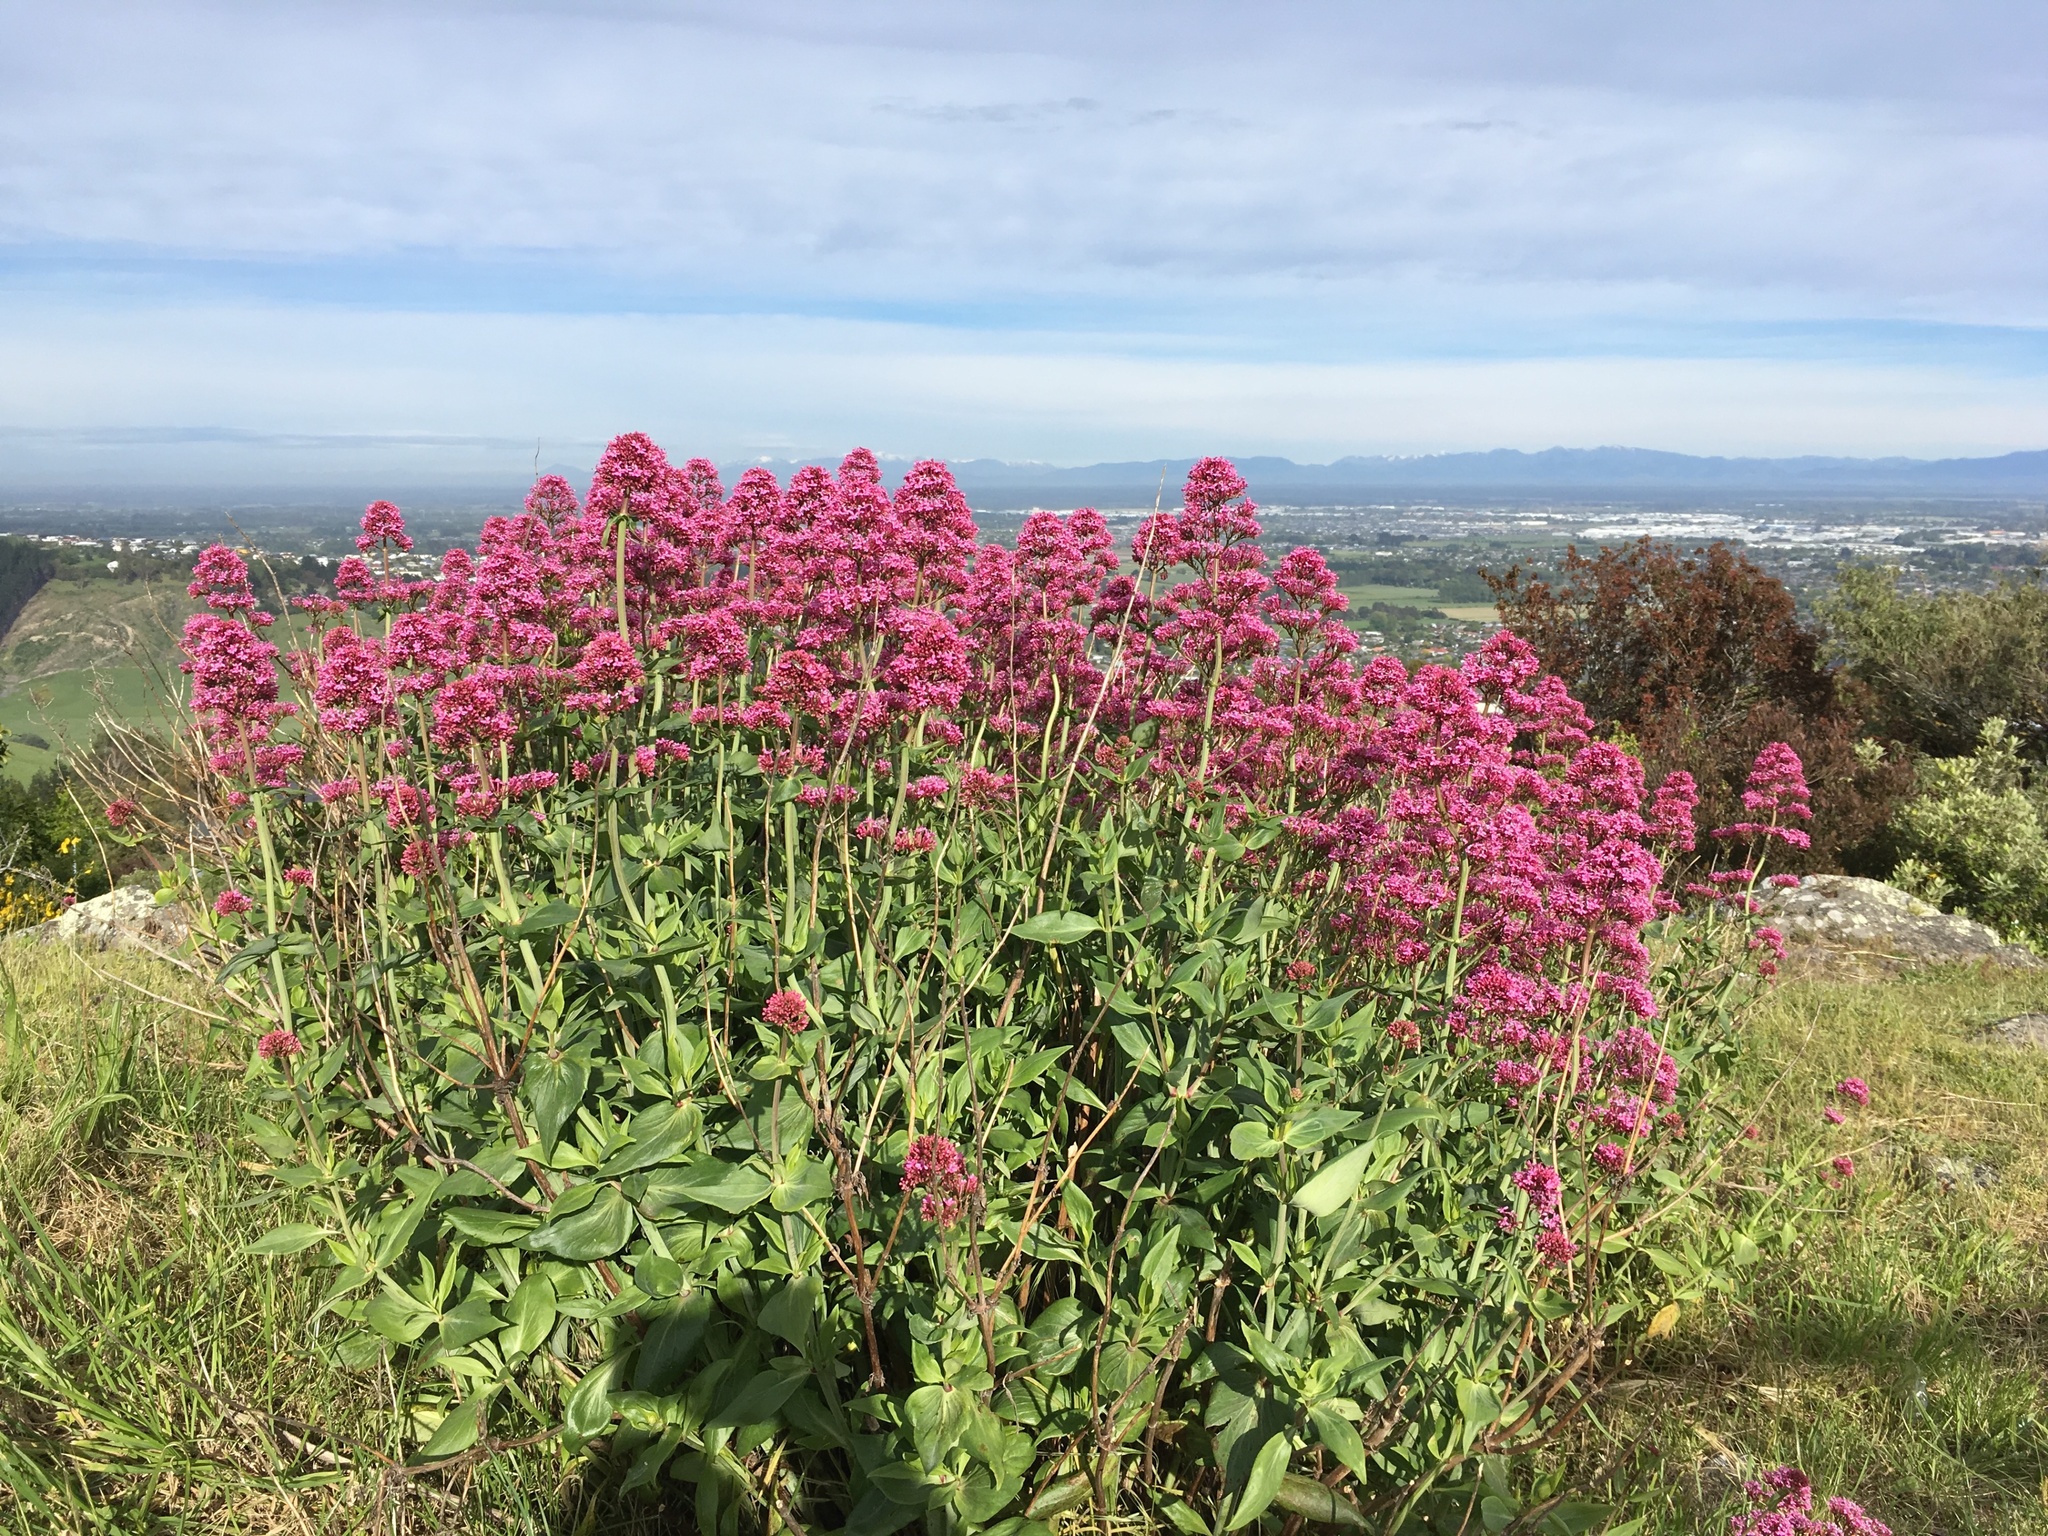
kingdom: Plantae
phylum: Tracheophyta
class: Magnoliopsida
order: Dipsacales
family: Caprifoliaceae
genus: Centranthus
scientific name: Centranthus ruber
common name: Red valerian
